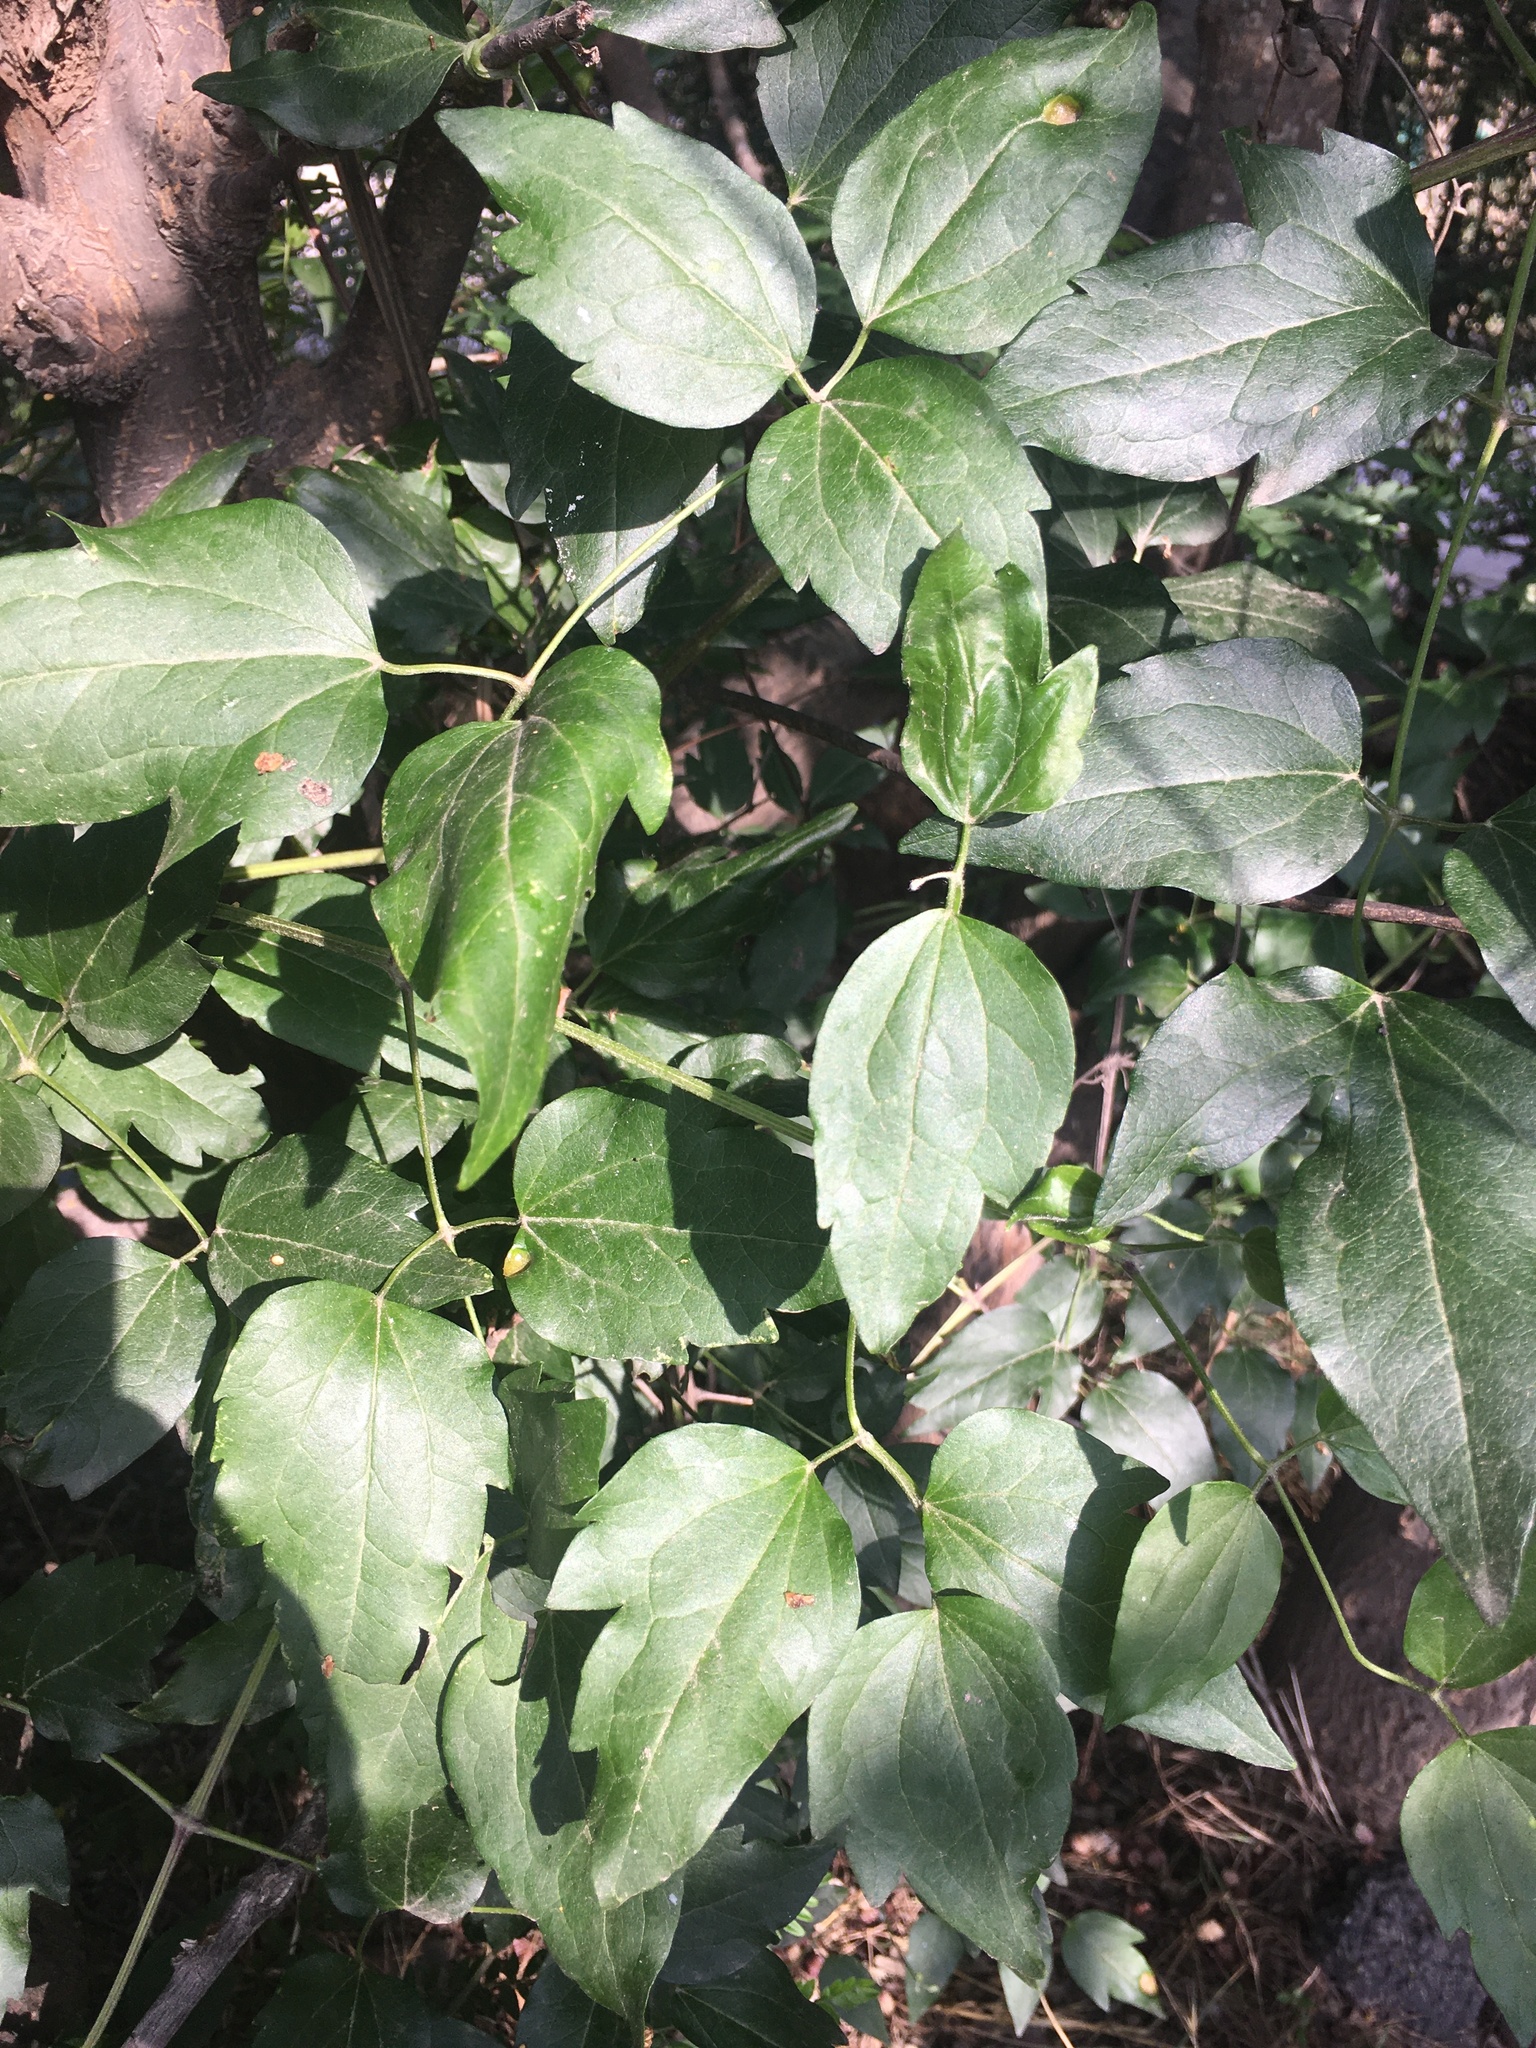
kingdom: Plantae
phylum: Tracheophyta
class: Magnoliopsida
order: Ranunculales
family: Ranunculaceae
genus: Clematis
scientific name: Clematis vitalba
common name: Evergreen clematis
